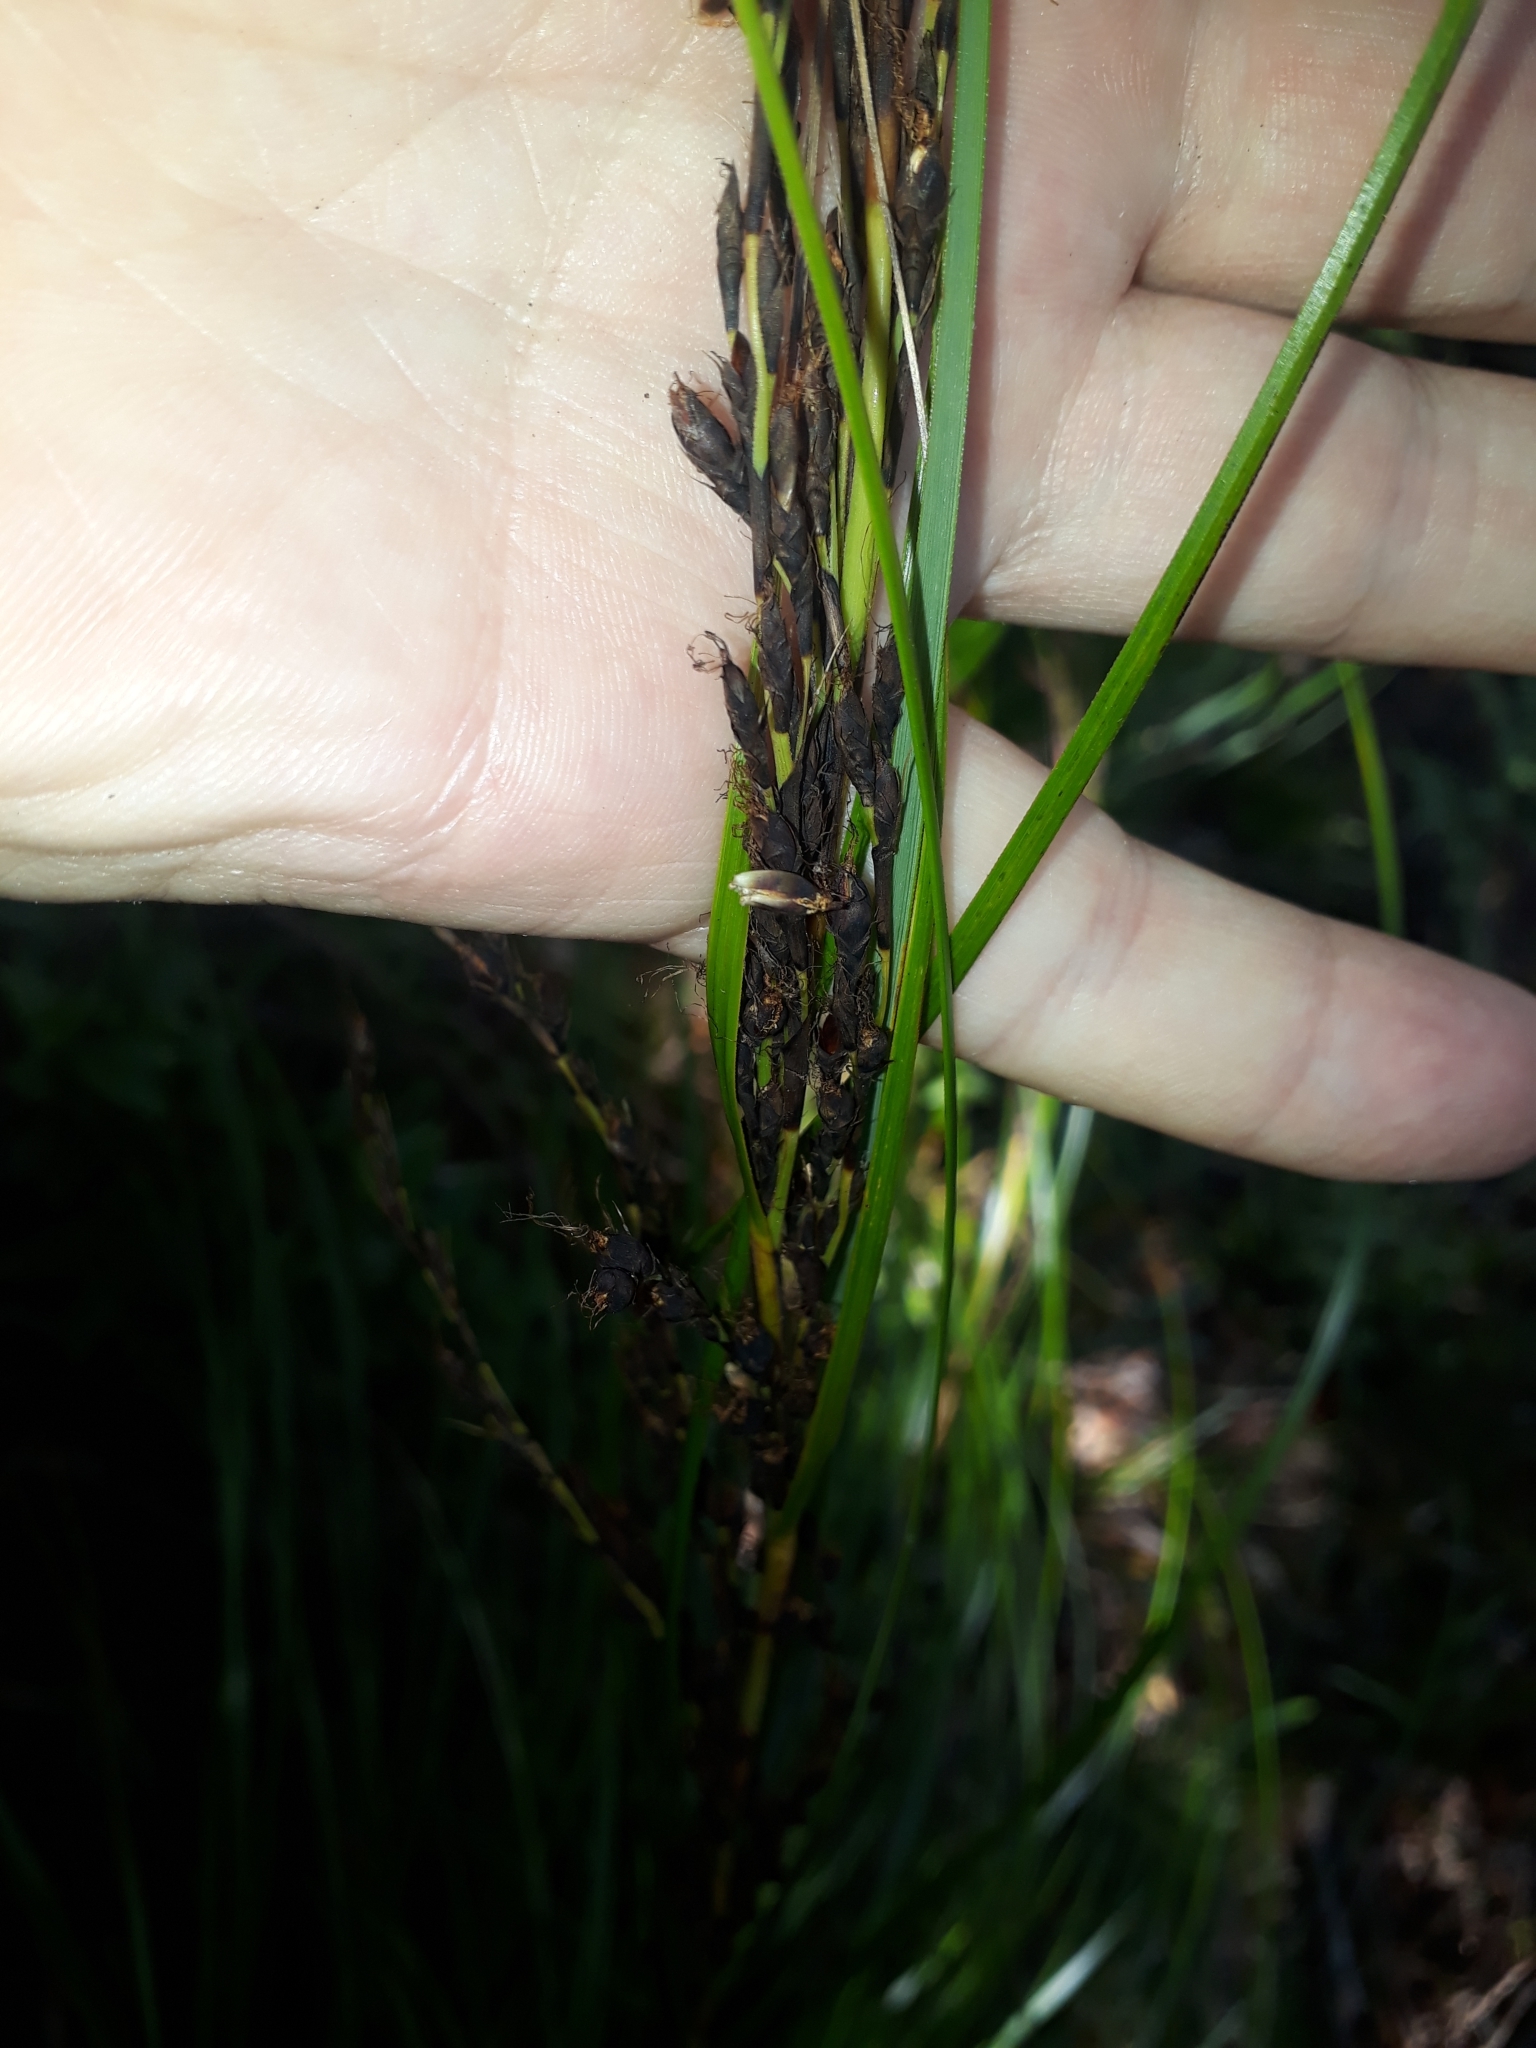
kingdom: Plantae
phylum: Tracheophyta
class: Liliopsida
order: Poales
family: Cyperaceae
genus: Gahnia
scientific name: Gahnia pauciflora
